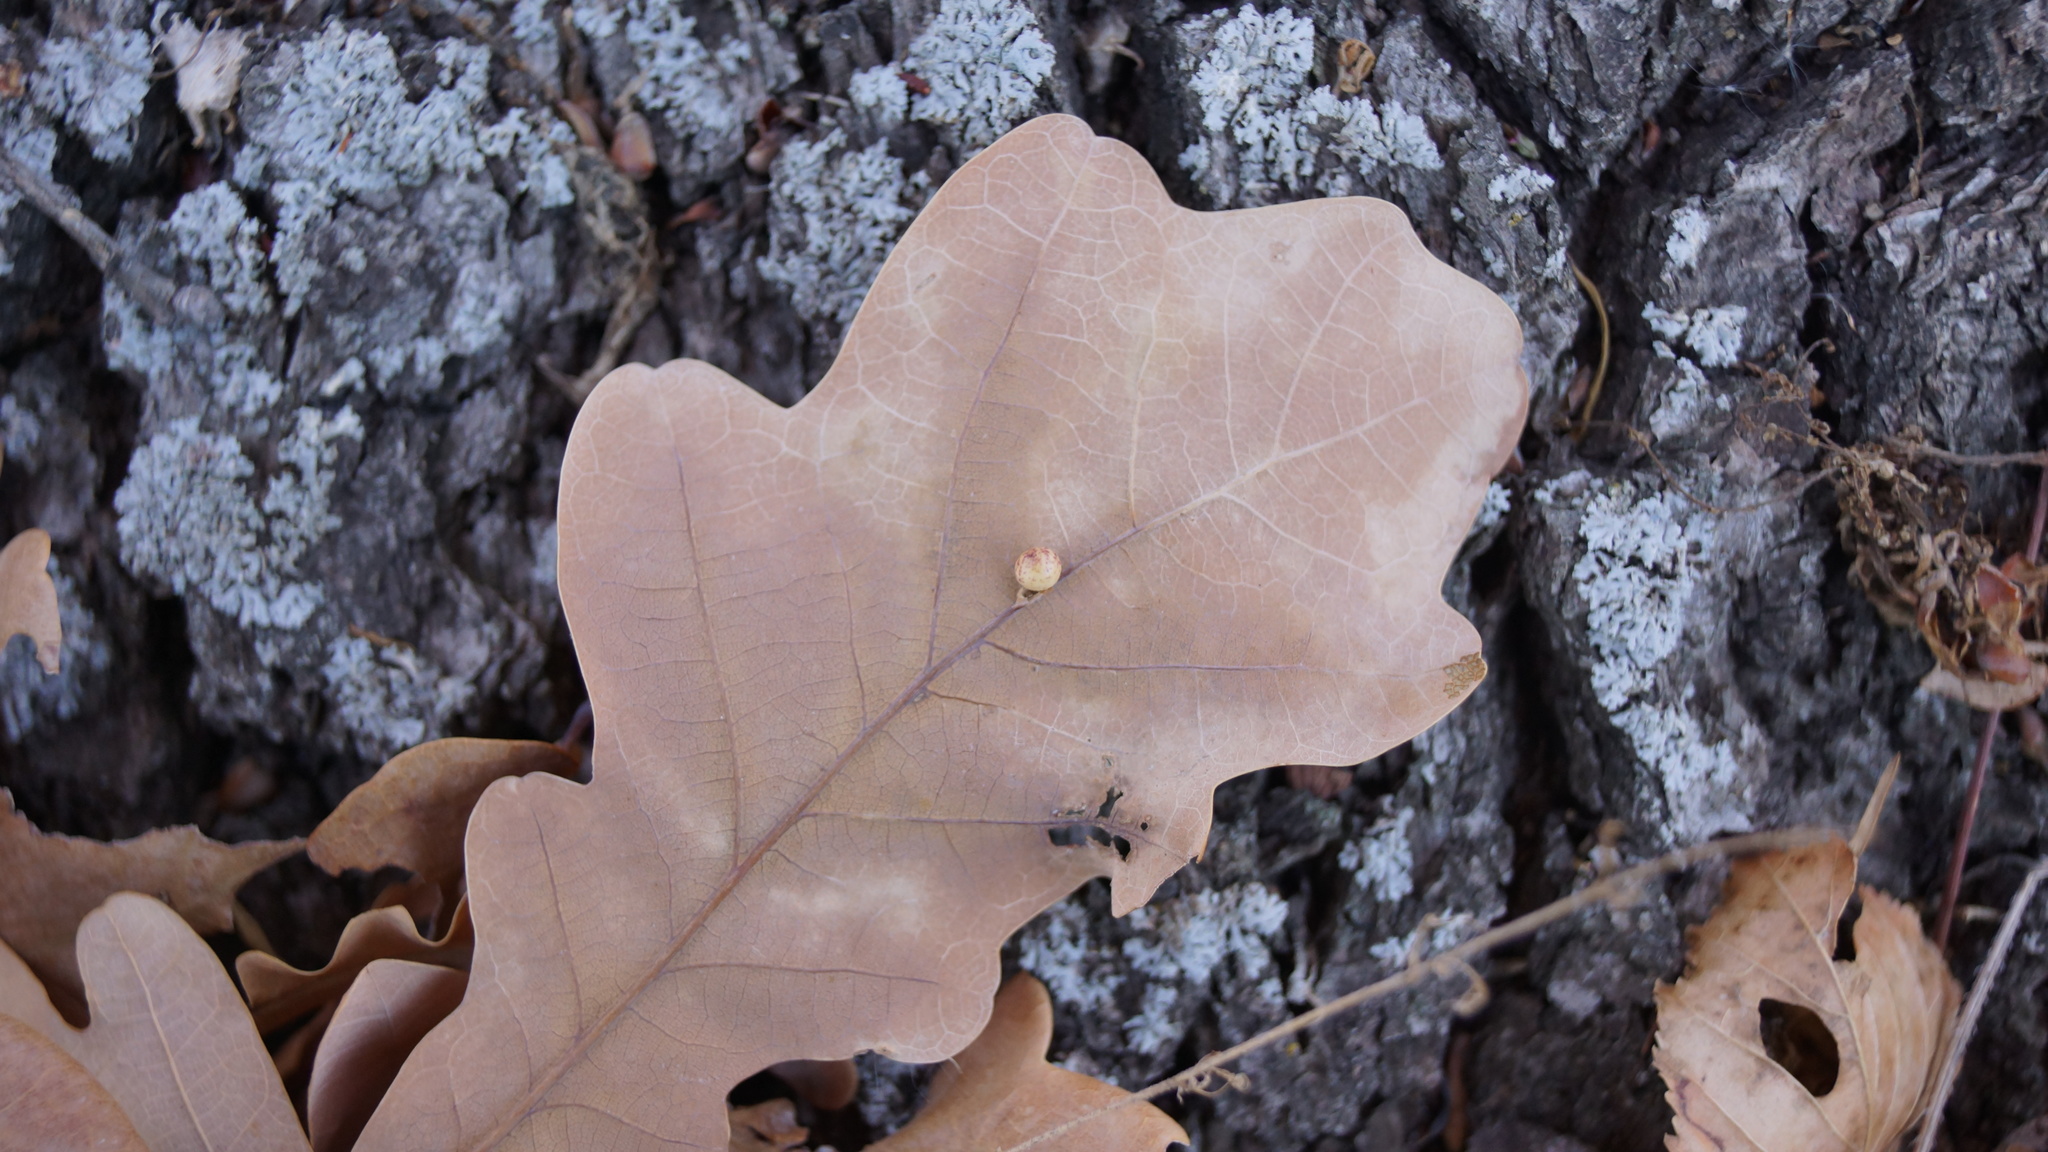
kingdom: Animalia
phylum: Arthropoda
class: Insecta
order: Hymenoptera
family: Cynipidae
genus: Neuroterus
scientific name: Neuroterus anthracinus
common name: Oyster gall
